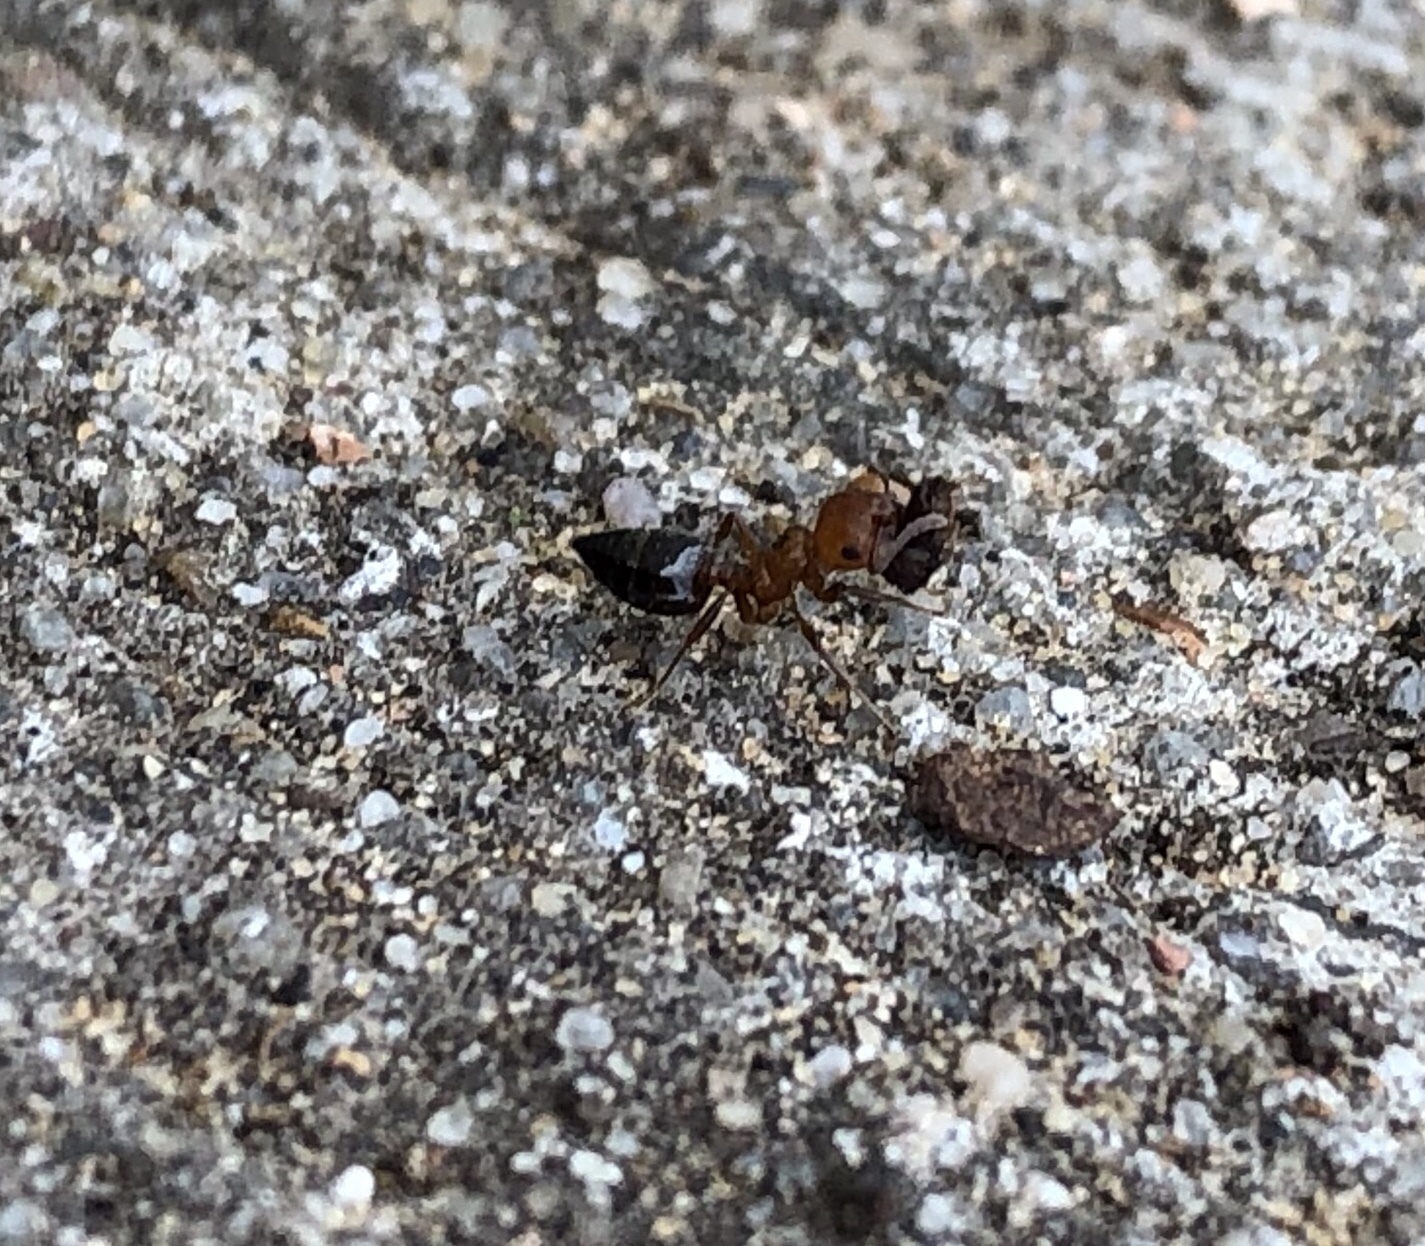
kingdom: Animalia
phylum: Arthropoda
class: Insecta
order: Hymenoptera
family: Formicidae
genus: Crematogaster
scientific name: Crematogaster laeviuscula
